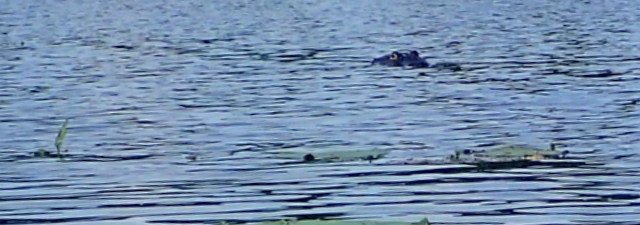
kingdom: Animalia
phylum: Chordata
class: Crocodylia
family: Alligatoridae
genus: Alligator
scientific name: Alligator mississippiensis
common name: American alligator
